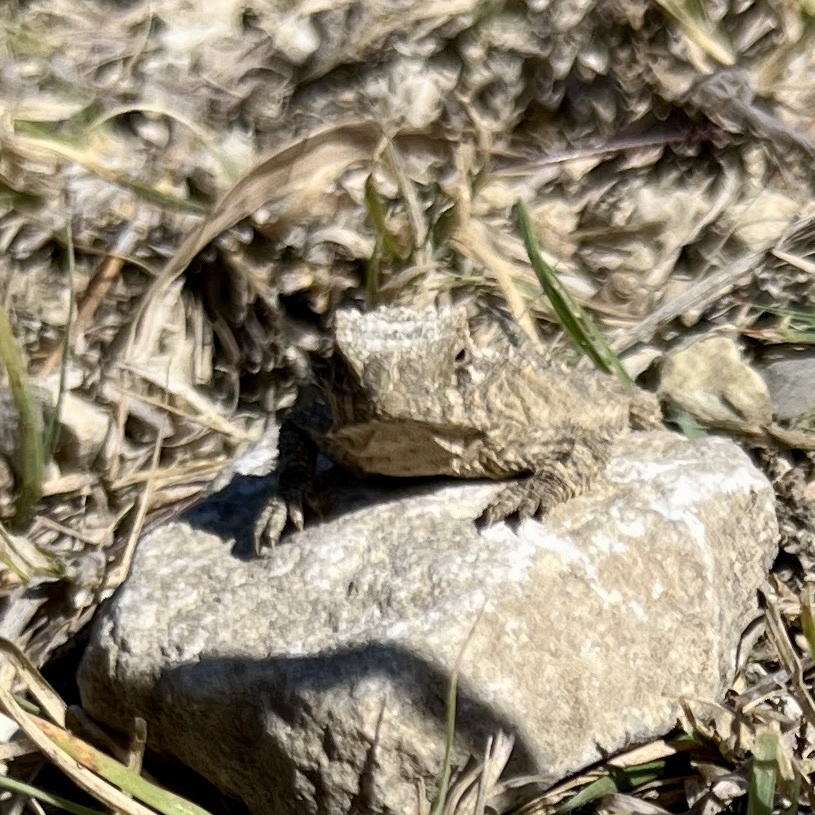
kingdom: Animalia
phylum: Chordata
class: Squamata
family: Phrynosomatidae
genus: Phrynosoma
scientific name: Phrynosoma cornutum
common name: Texas horned lizard
